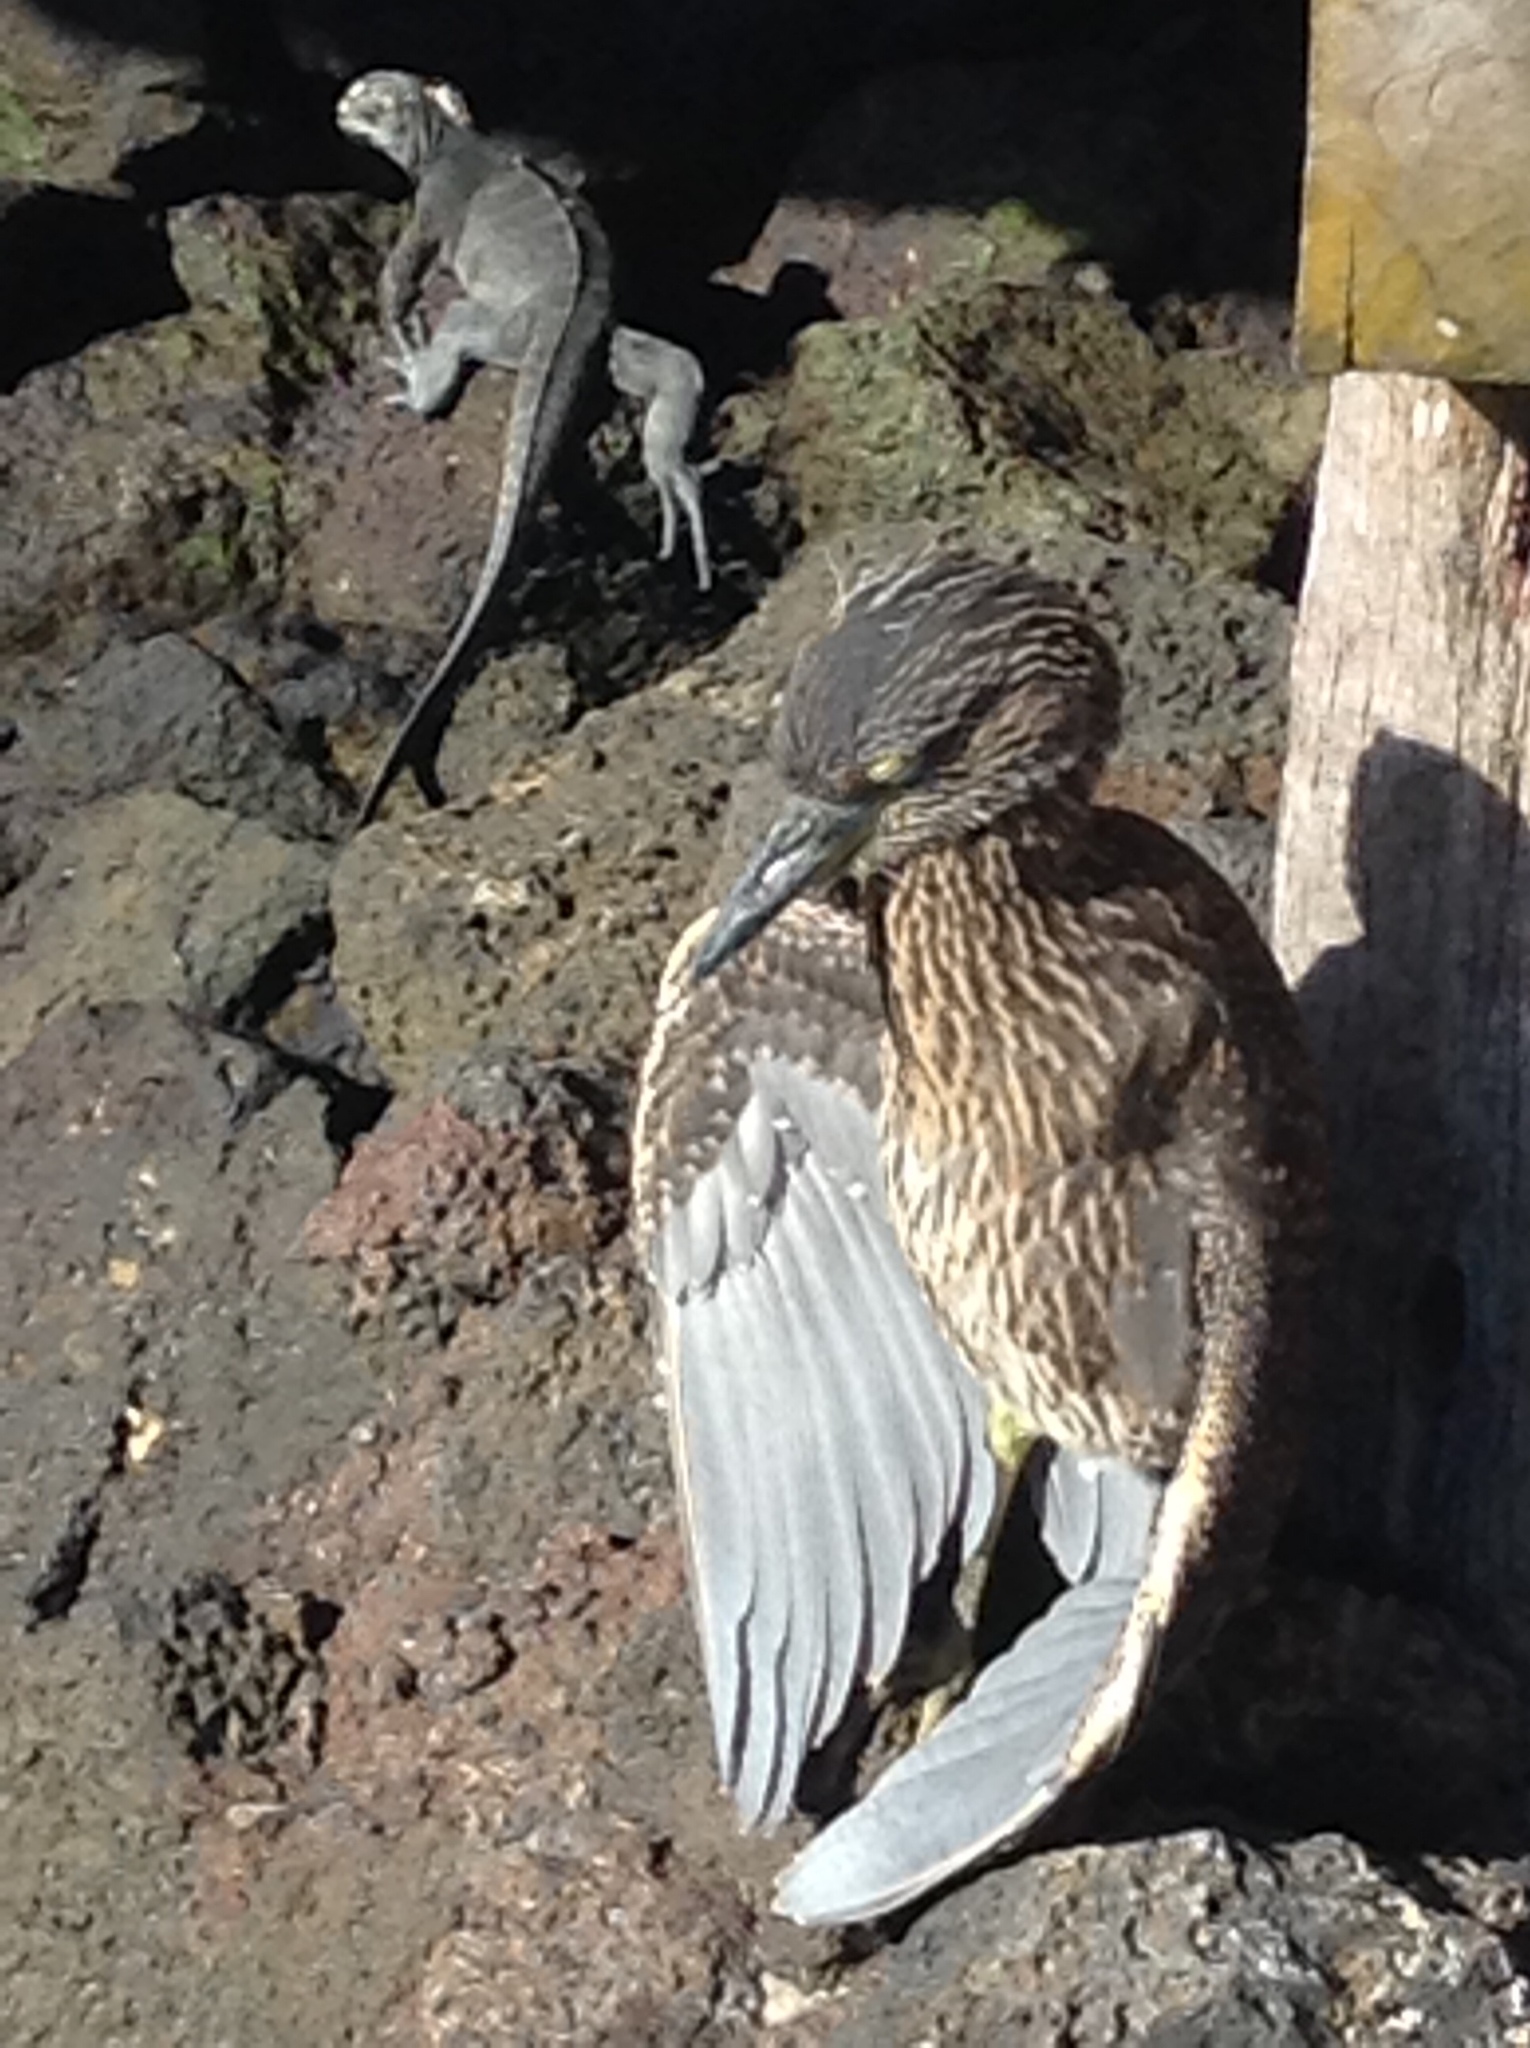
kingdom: Animalia
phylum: Chordata
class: Aves
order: Pelecaniformes
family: Ardeidae
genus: Nyctanassa
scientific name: Nyctanassa violacea
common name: Yellow-crowned night heron
